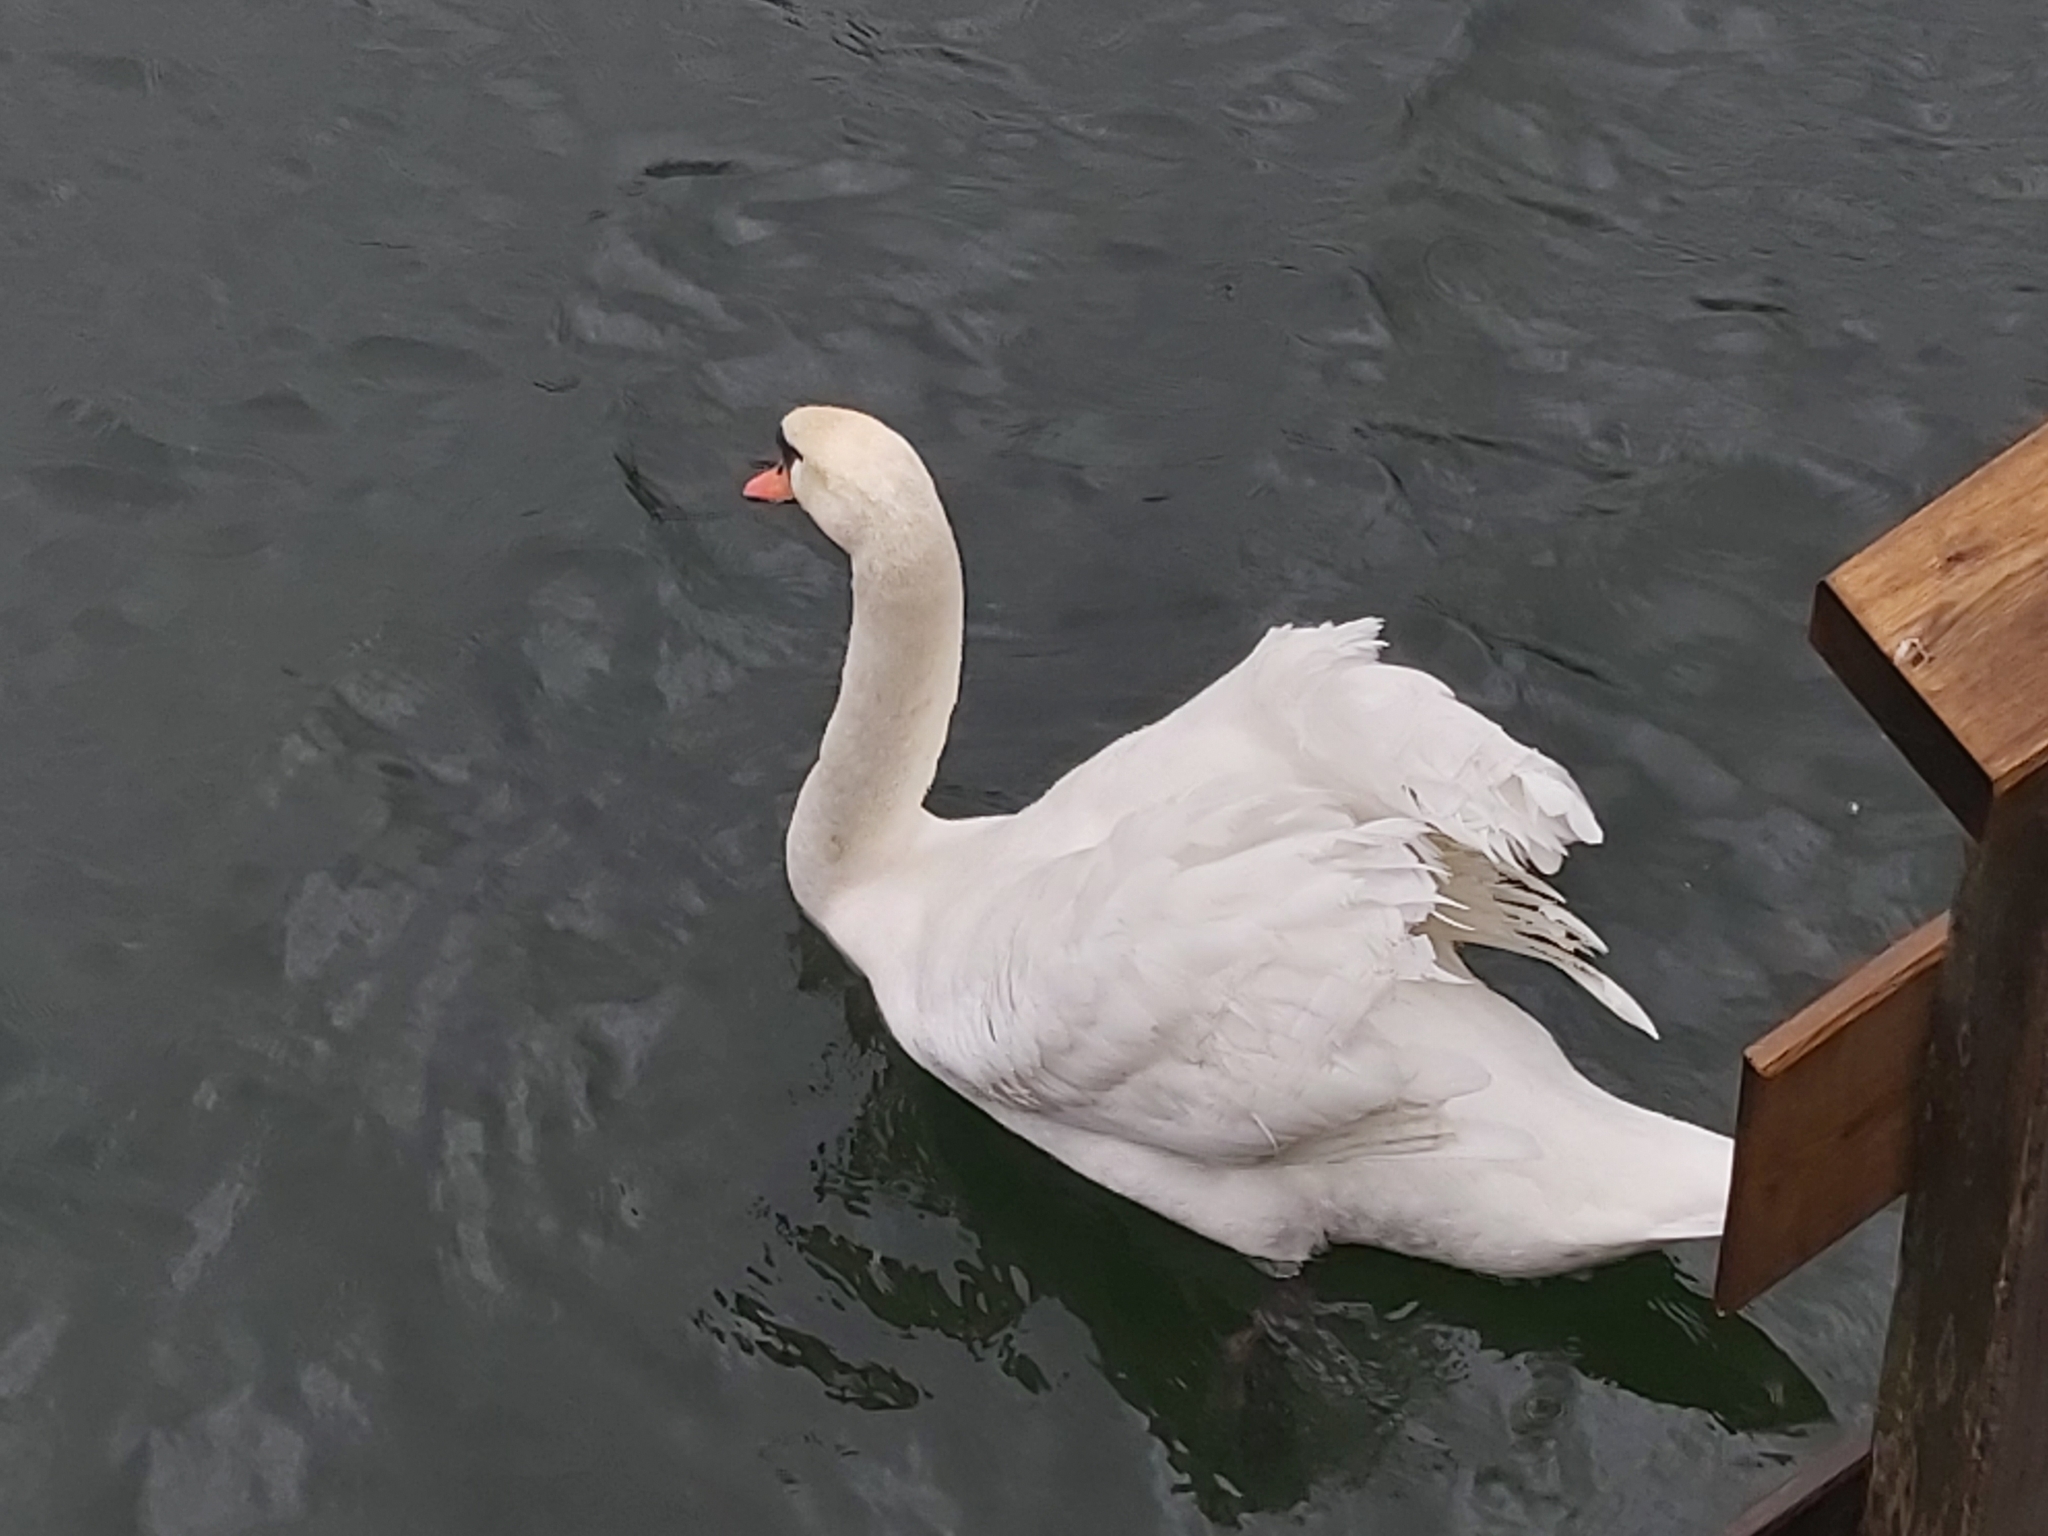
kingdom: Animalia
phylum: Chordata
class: Aves
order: Anseriformes
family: Anatidae
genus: Cygnus
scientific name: Cygnus olor
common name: Mute swan
